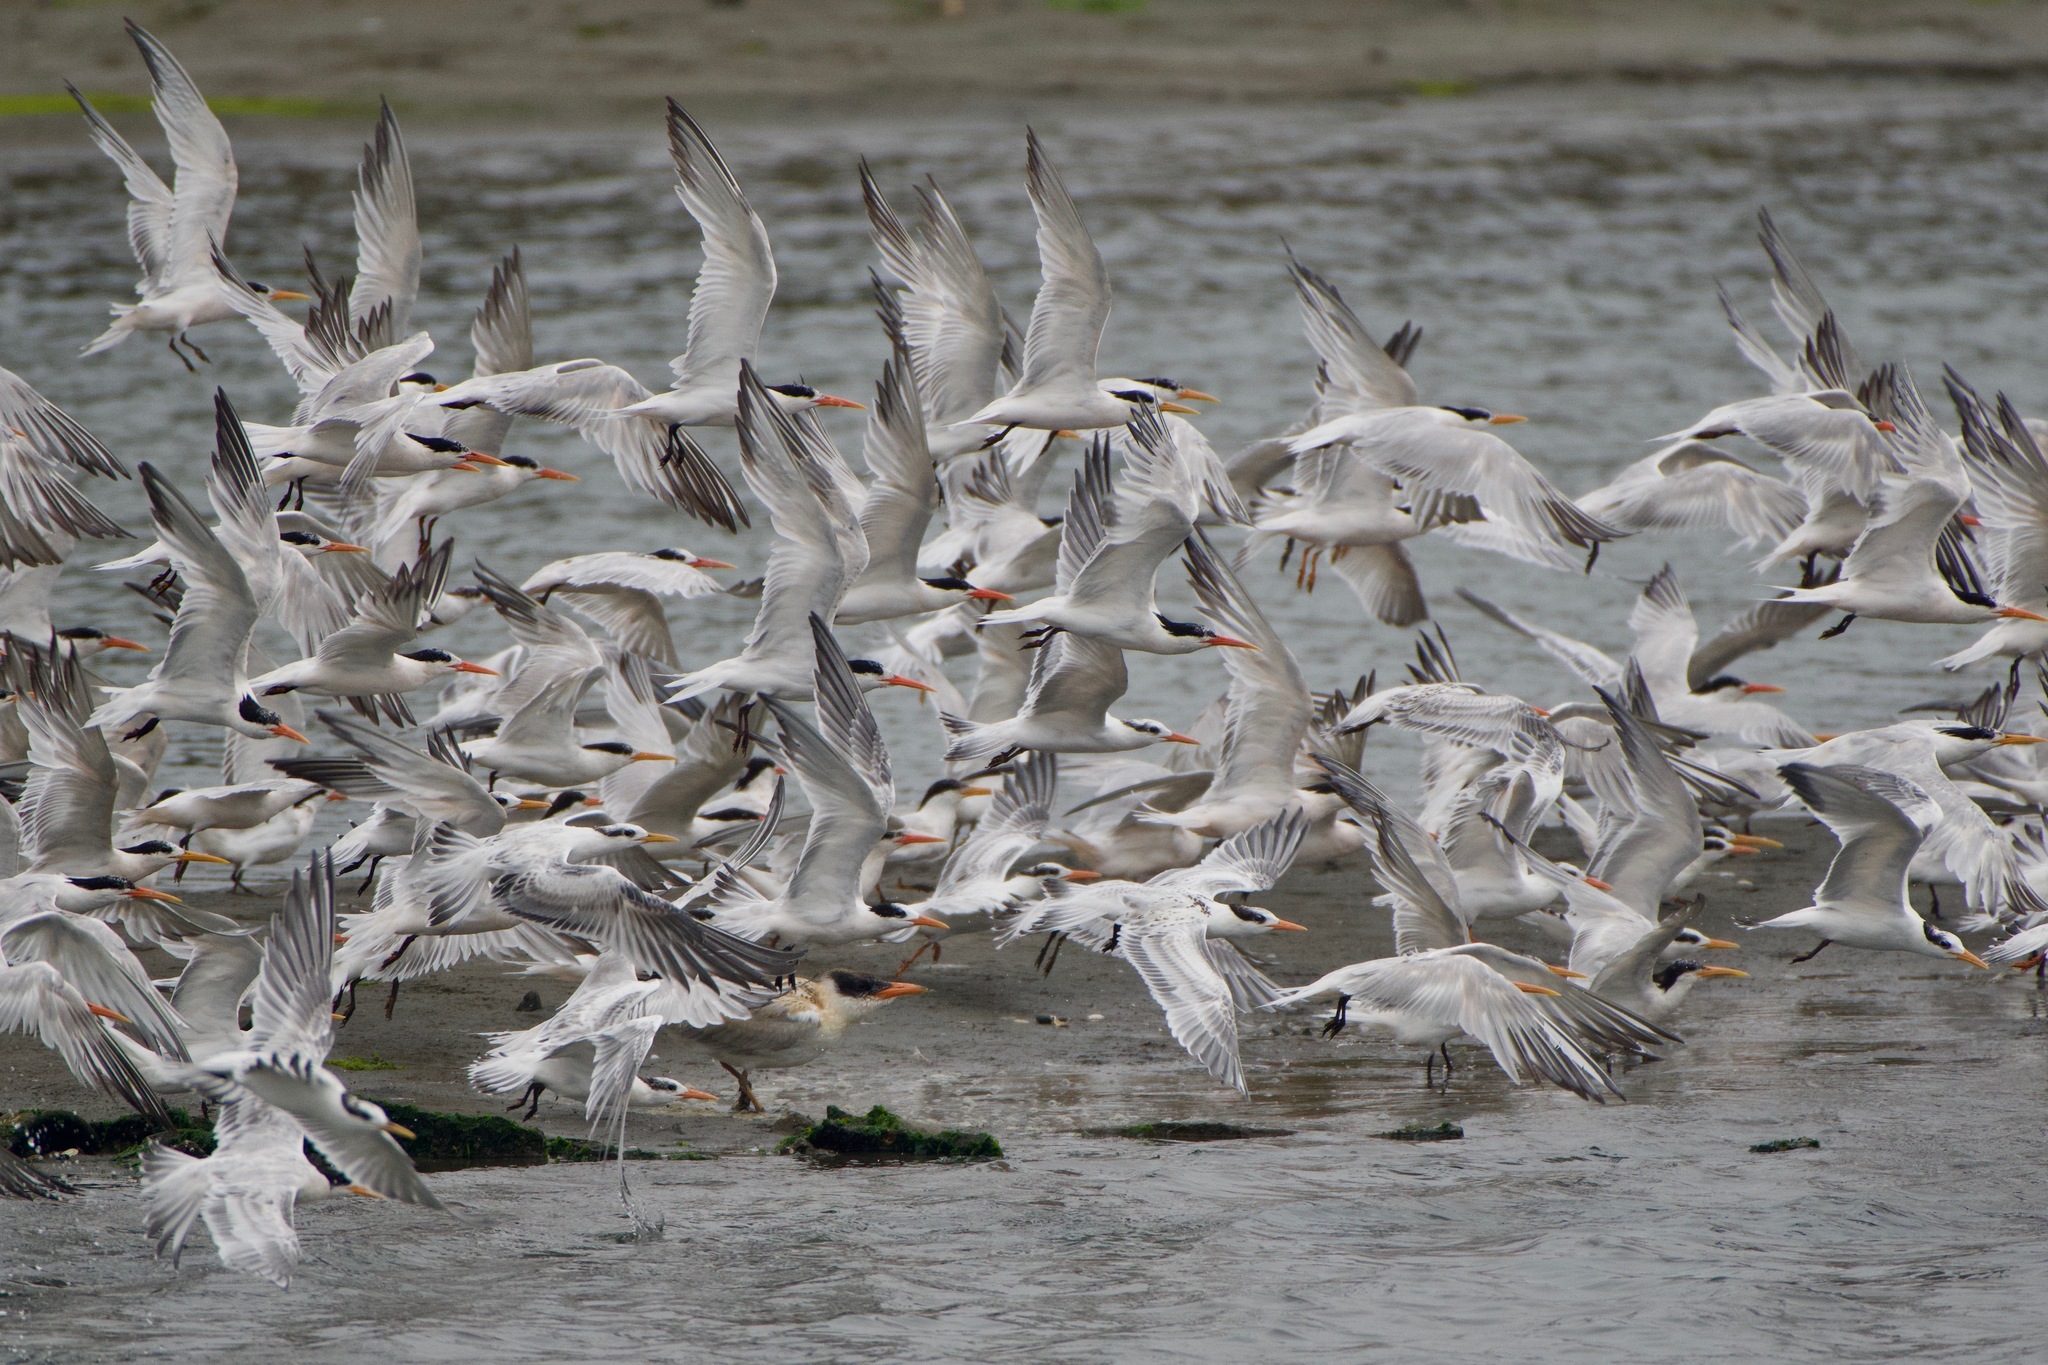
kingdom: Animalia
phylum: Chordata
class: Aves
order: Charadriiformes
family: Laridae
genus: Hydroprogne
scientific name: Hydroprogne caspia
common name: Caspian tern
